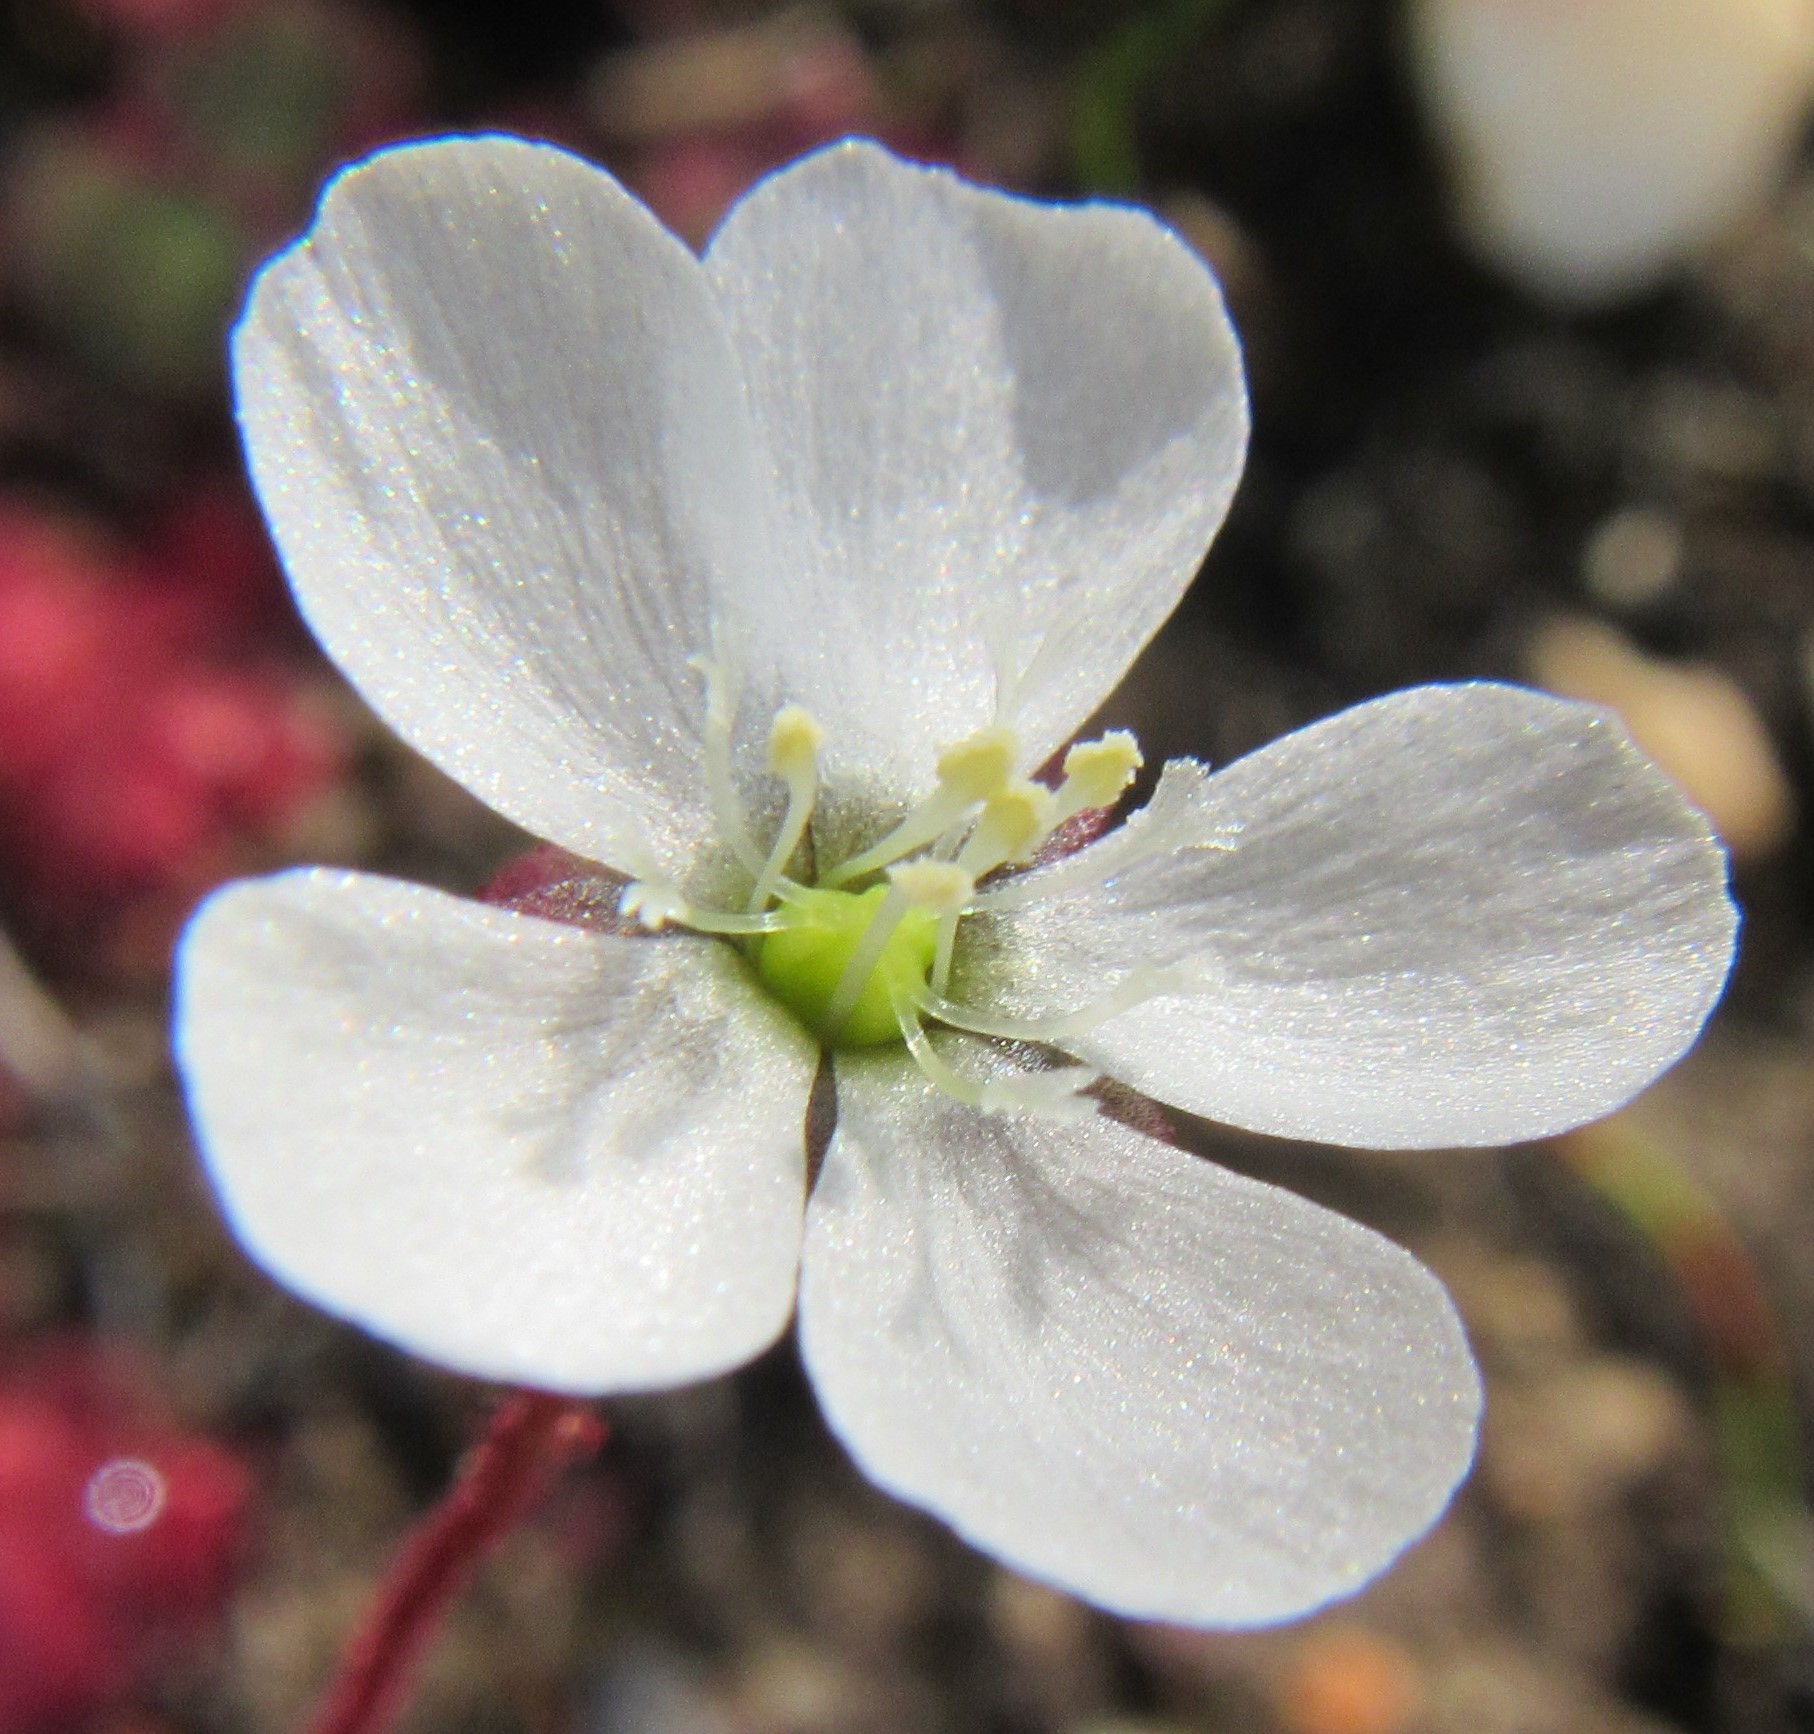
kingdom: Plantae
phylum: Tracheophyta
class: Magnoliopsida
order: Caryophyllales
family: Droseraceae
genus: Drosera
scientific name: Drosera trinervia
